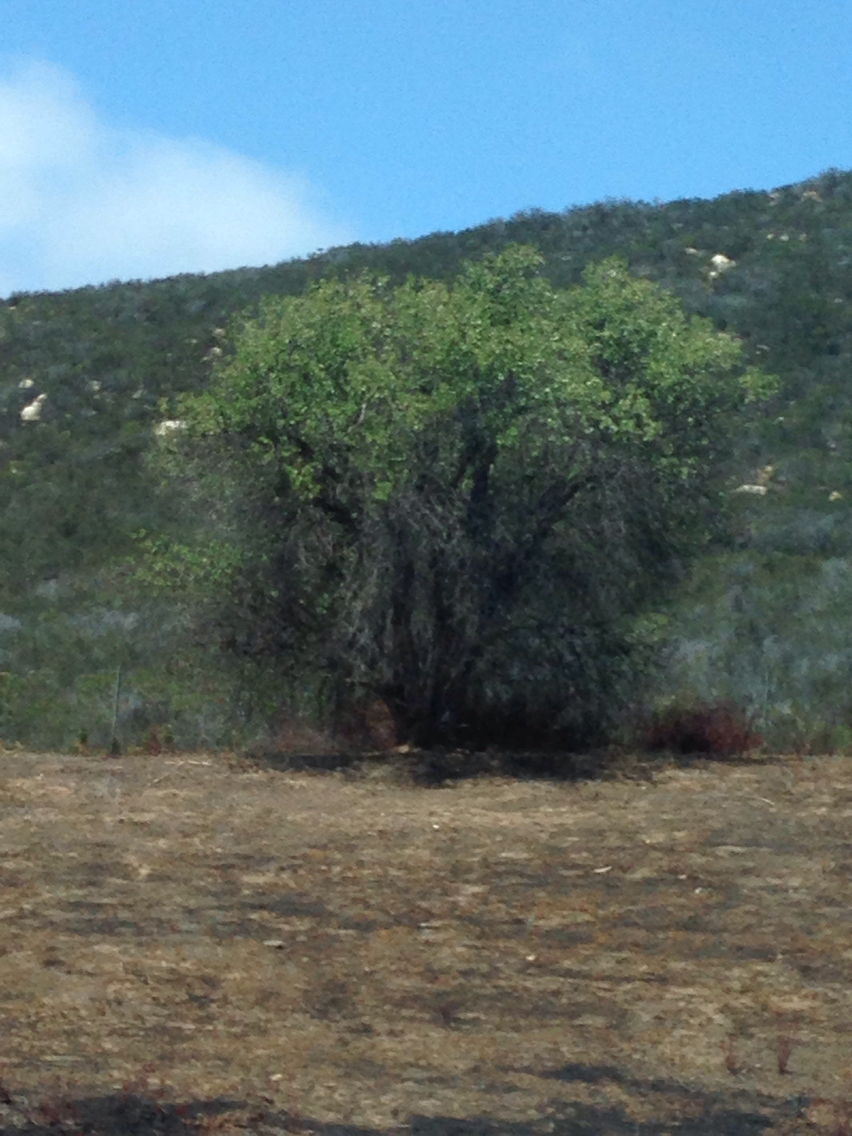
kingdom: Plantae
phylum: Tracheophyta
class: Magnoliopsida
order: Dipsacales
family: Viburnaceae
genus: Sambucus
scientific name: Sambucus cerulea
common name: Blue elder
